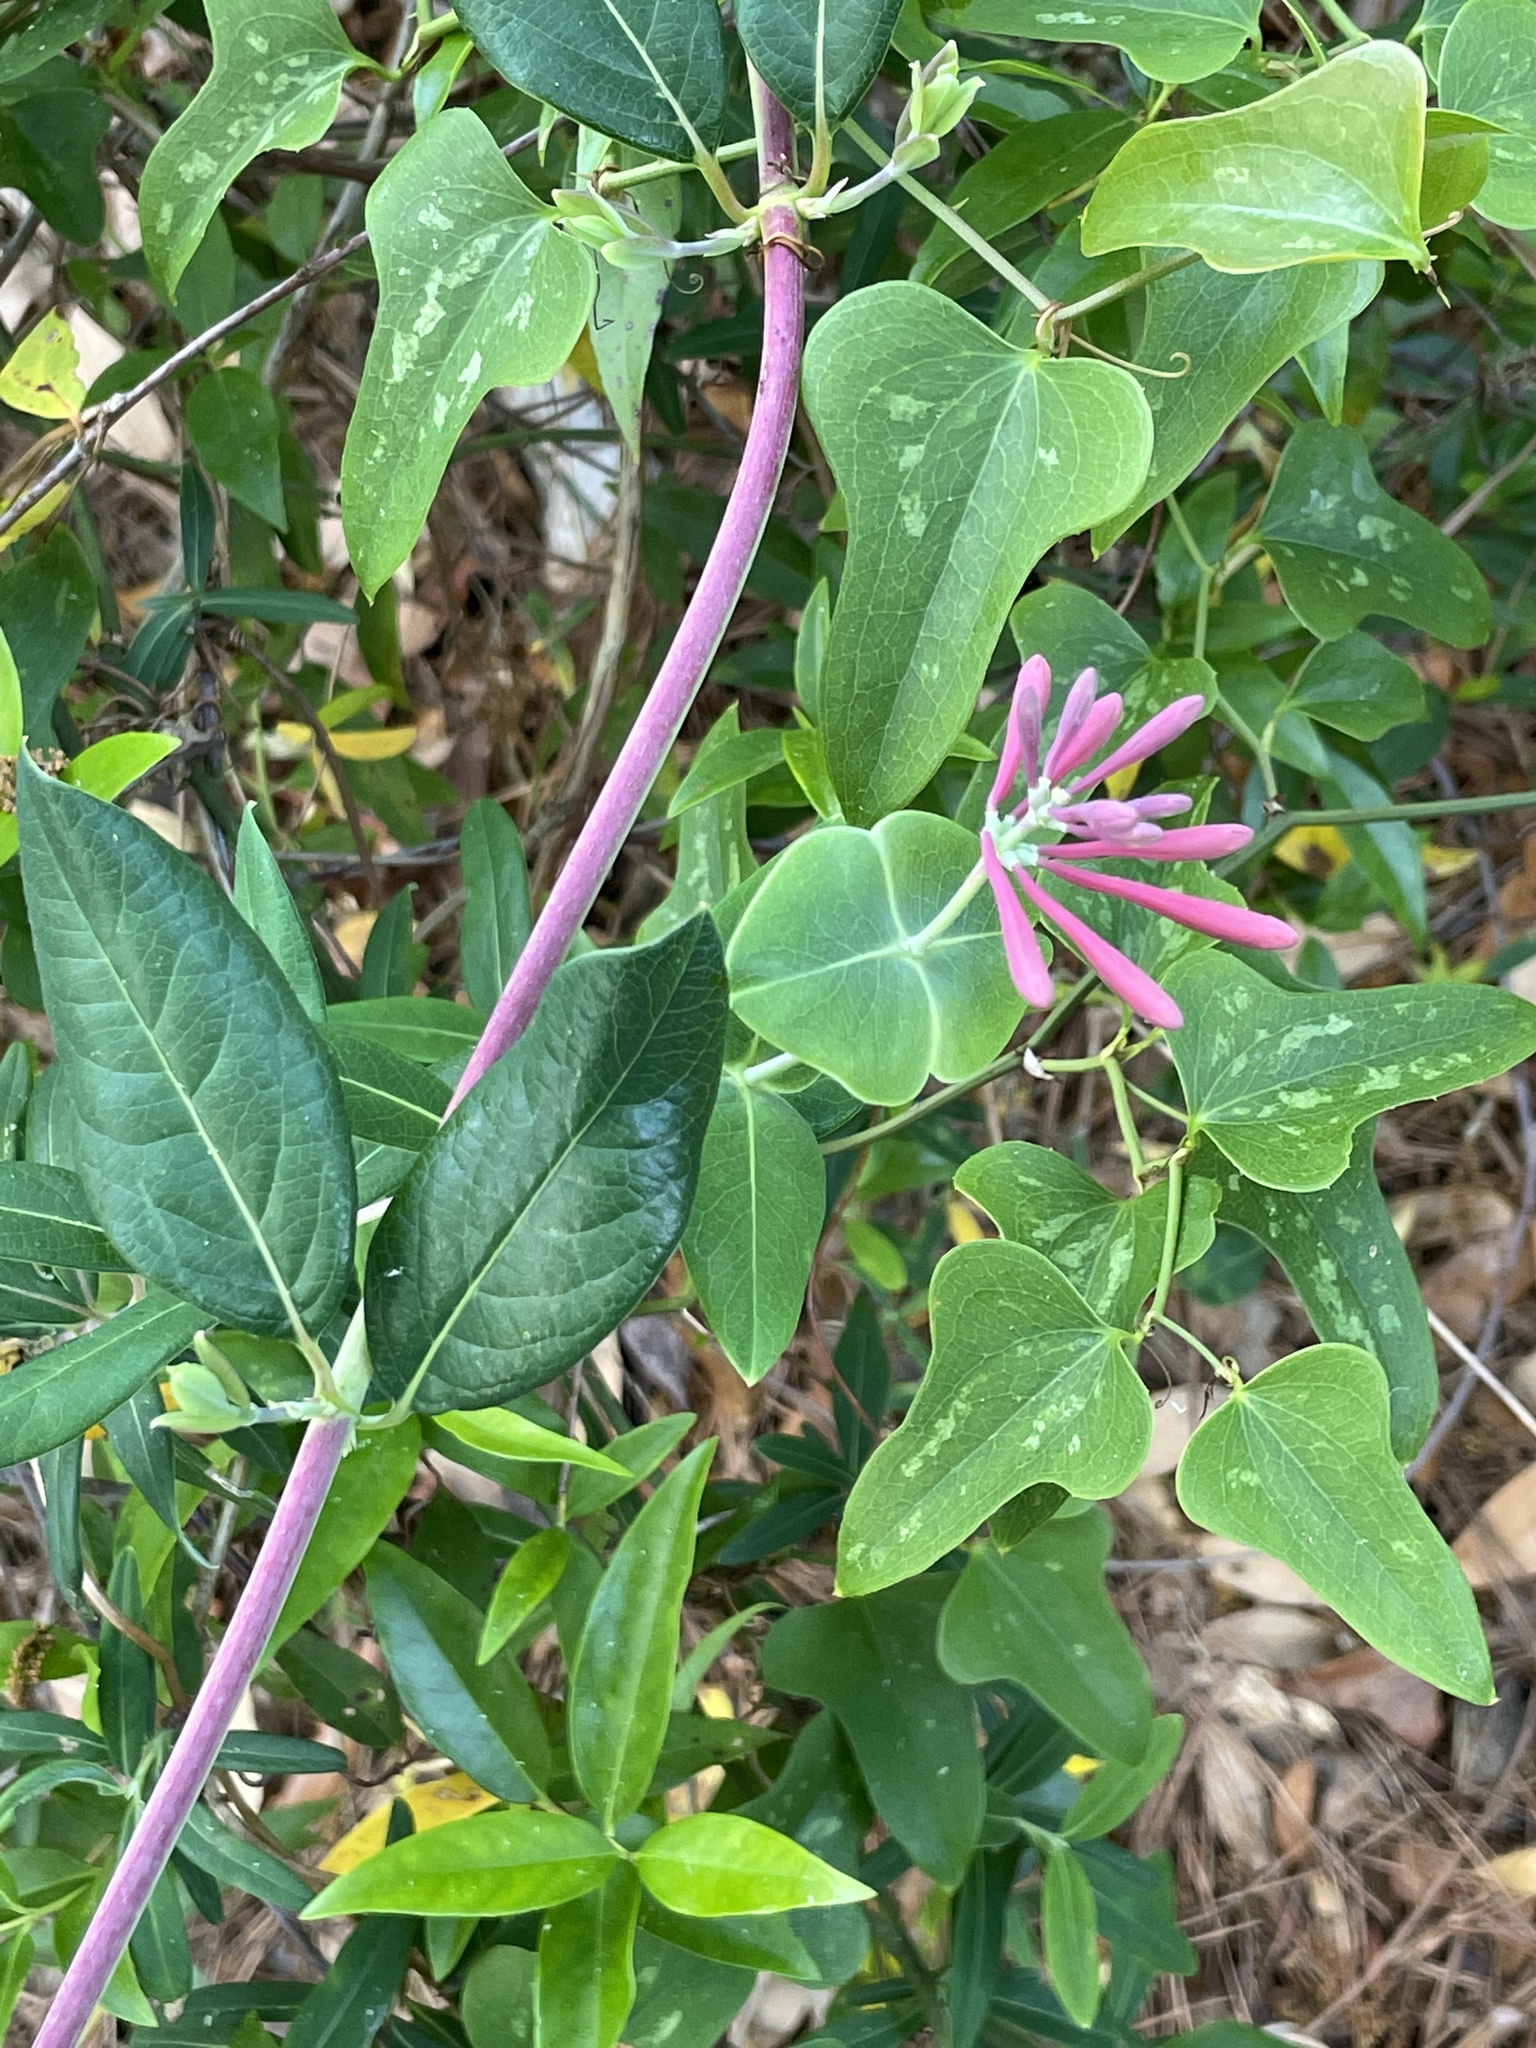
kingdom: Plantae
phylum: Tracheophyta
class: Magnoliopsida
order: Dipsacales
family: Caprifoliaceae
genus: Lonicera
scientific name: Lonicera sempervirens
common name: Coral honeysuckle
